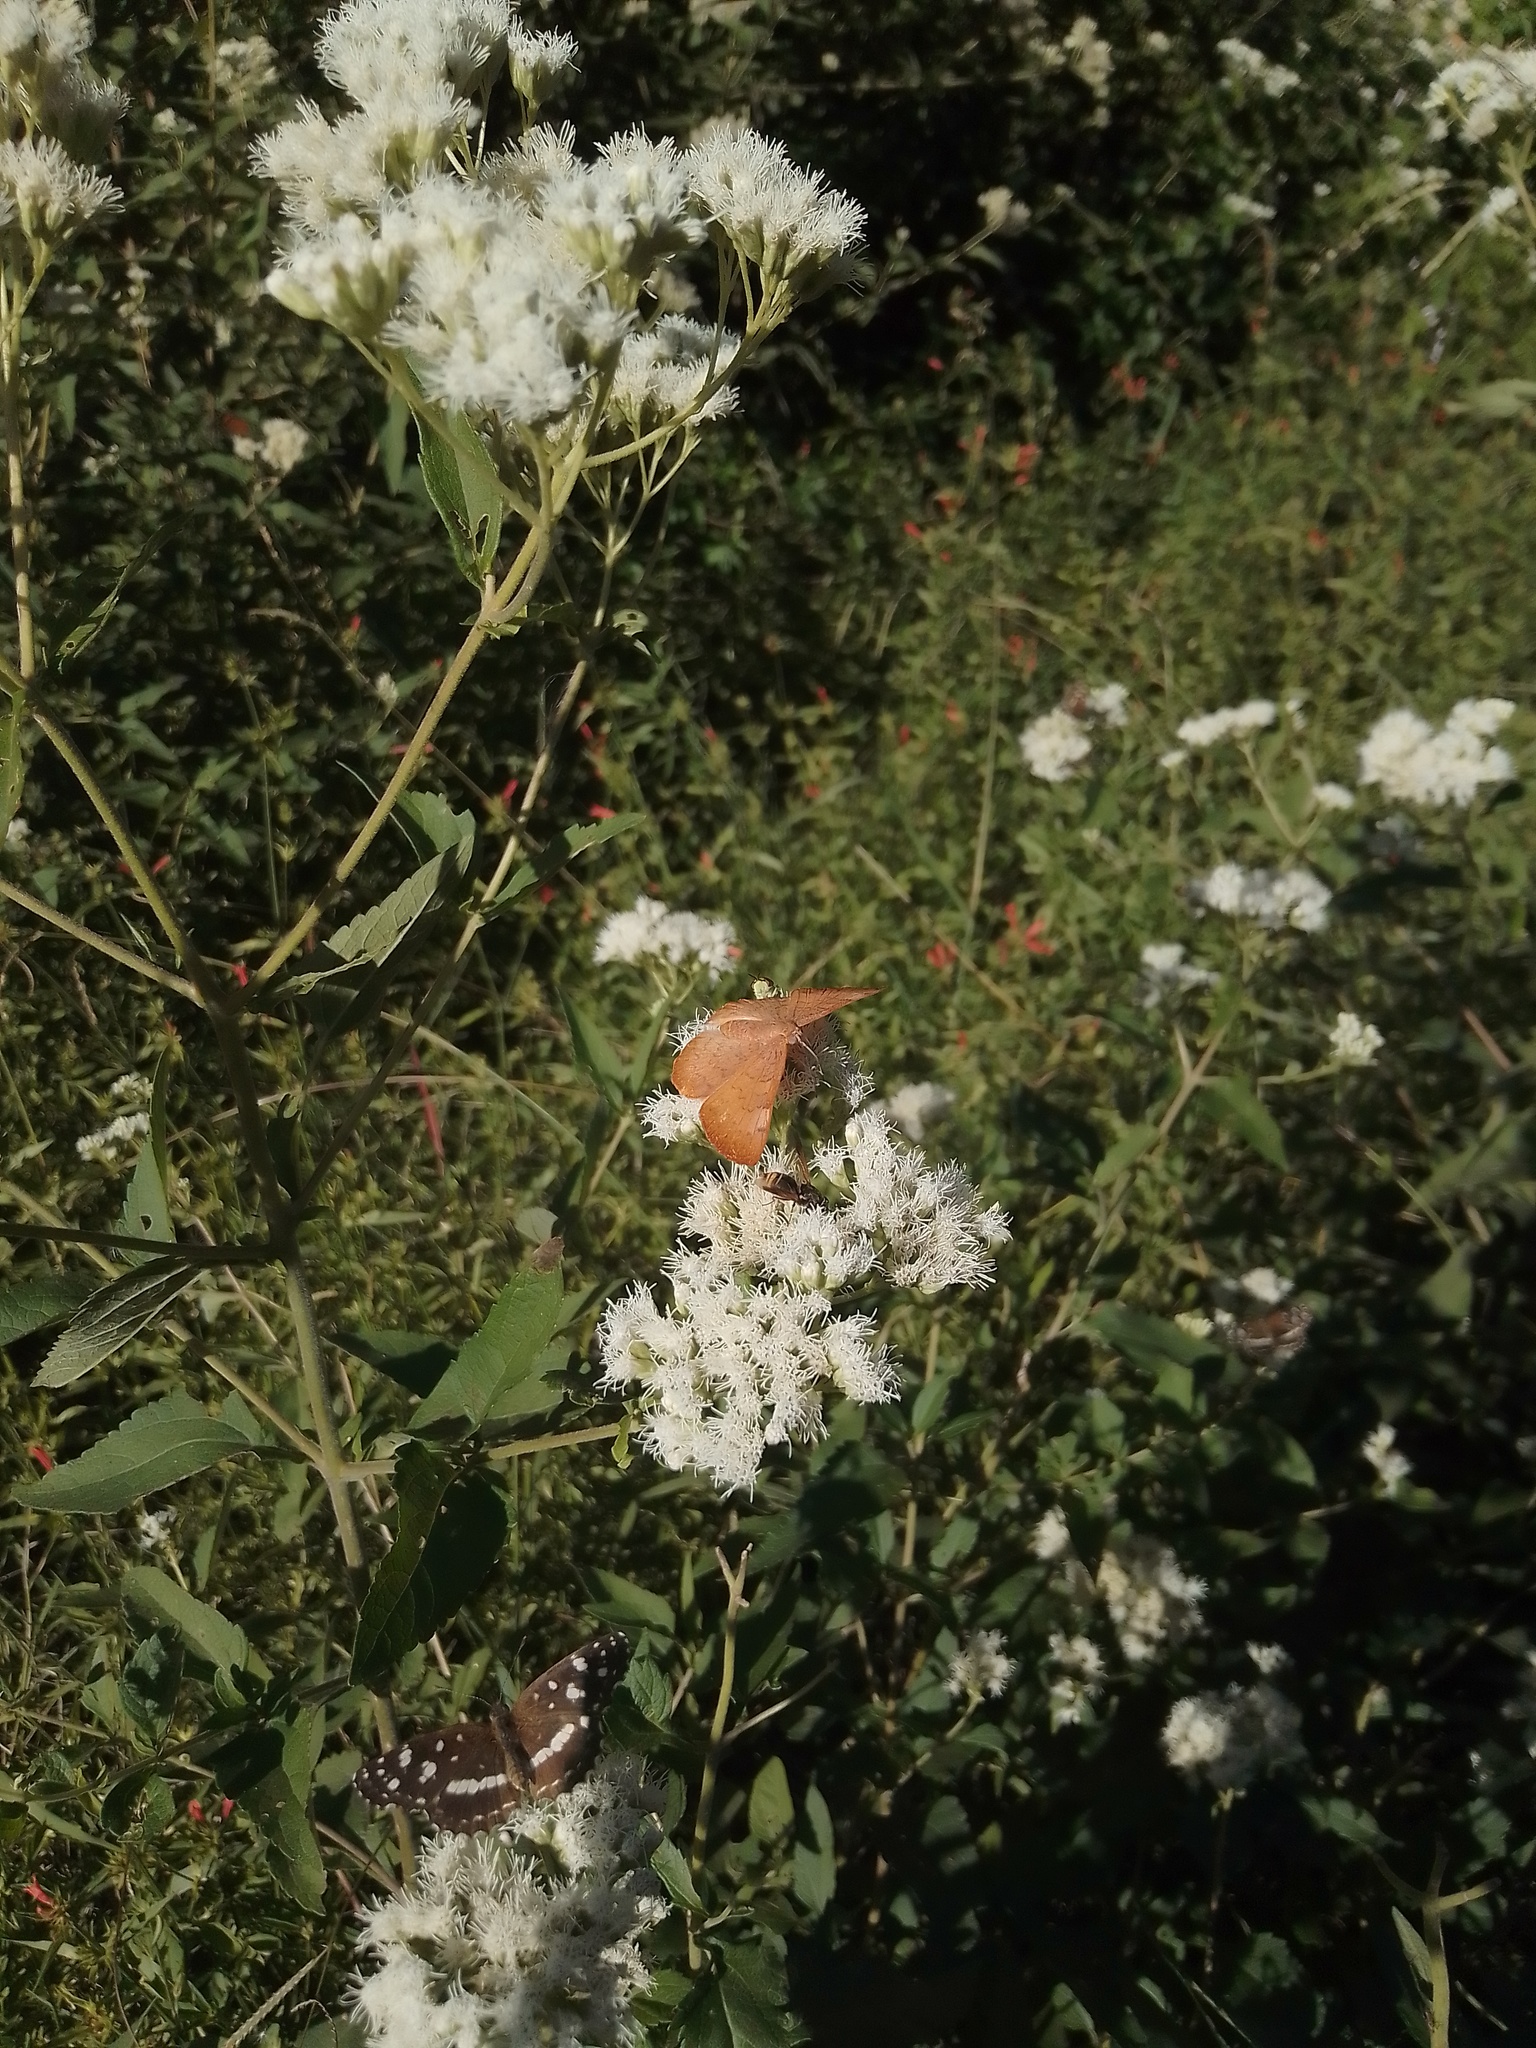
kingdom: Animalia
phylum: Arthropoda
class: Insecta
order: Lepidoptera
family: Lycaenidae
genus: Emesis
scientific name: Emesis russula
